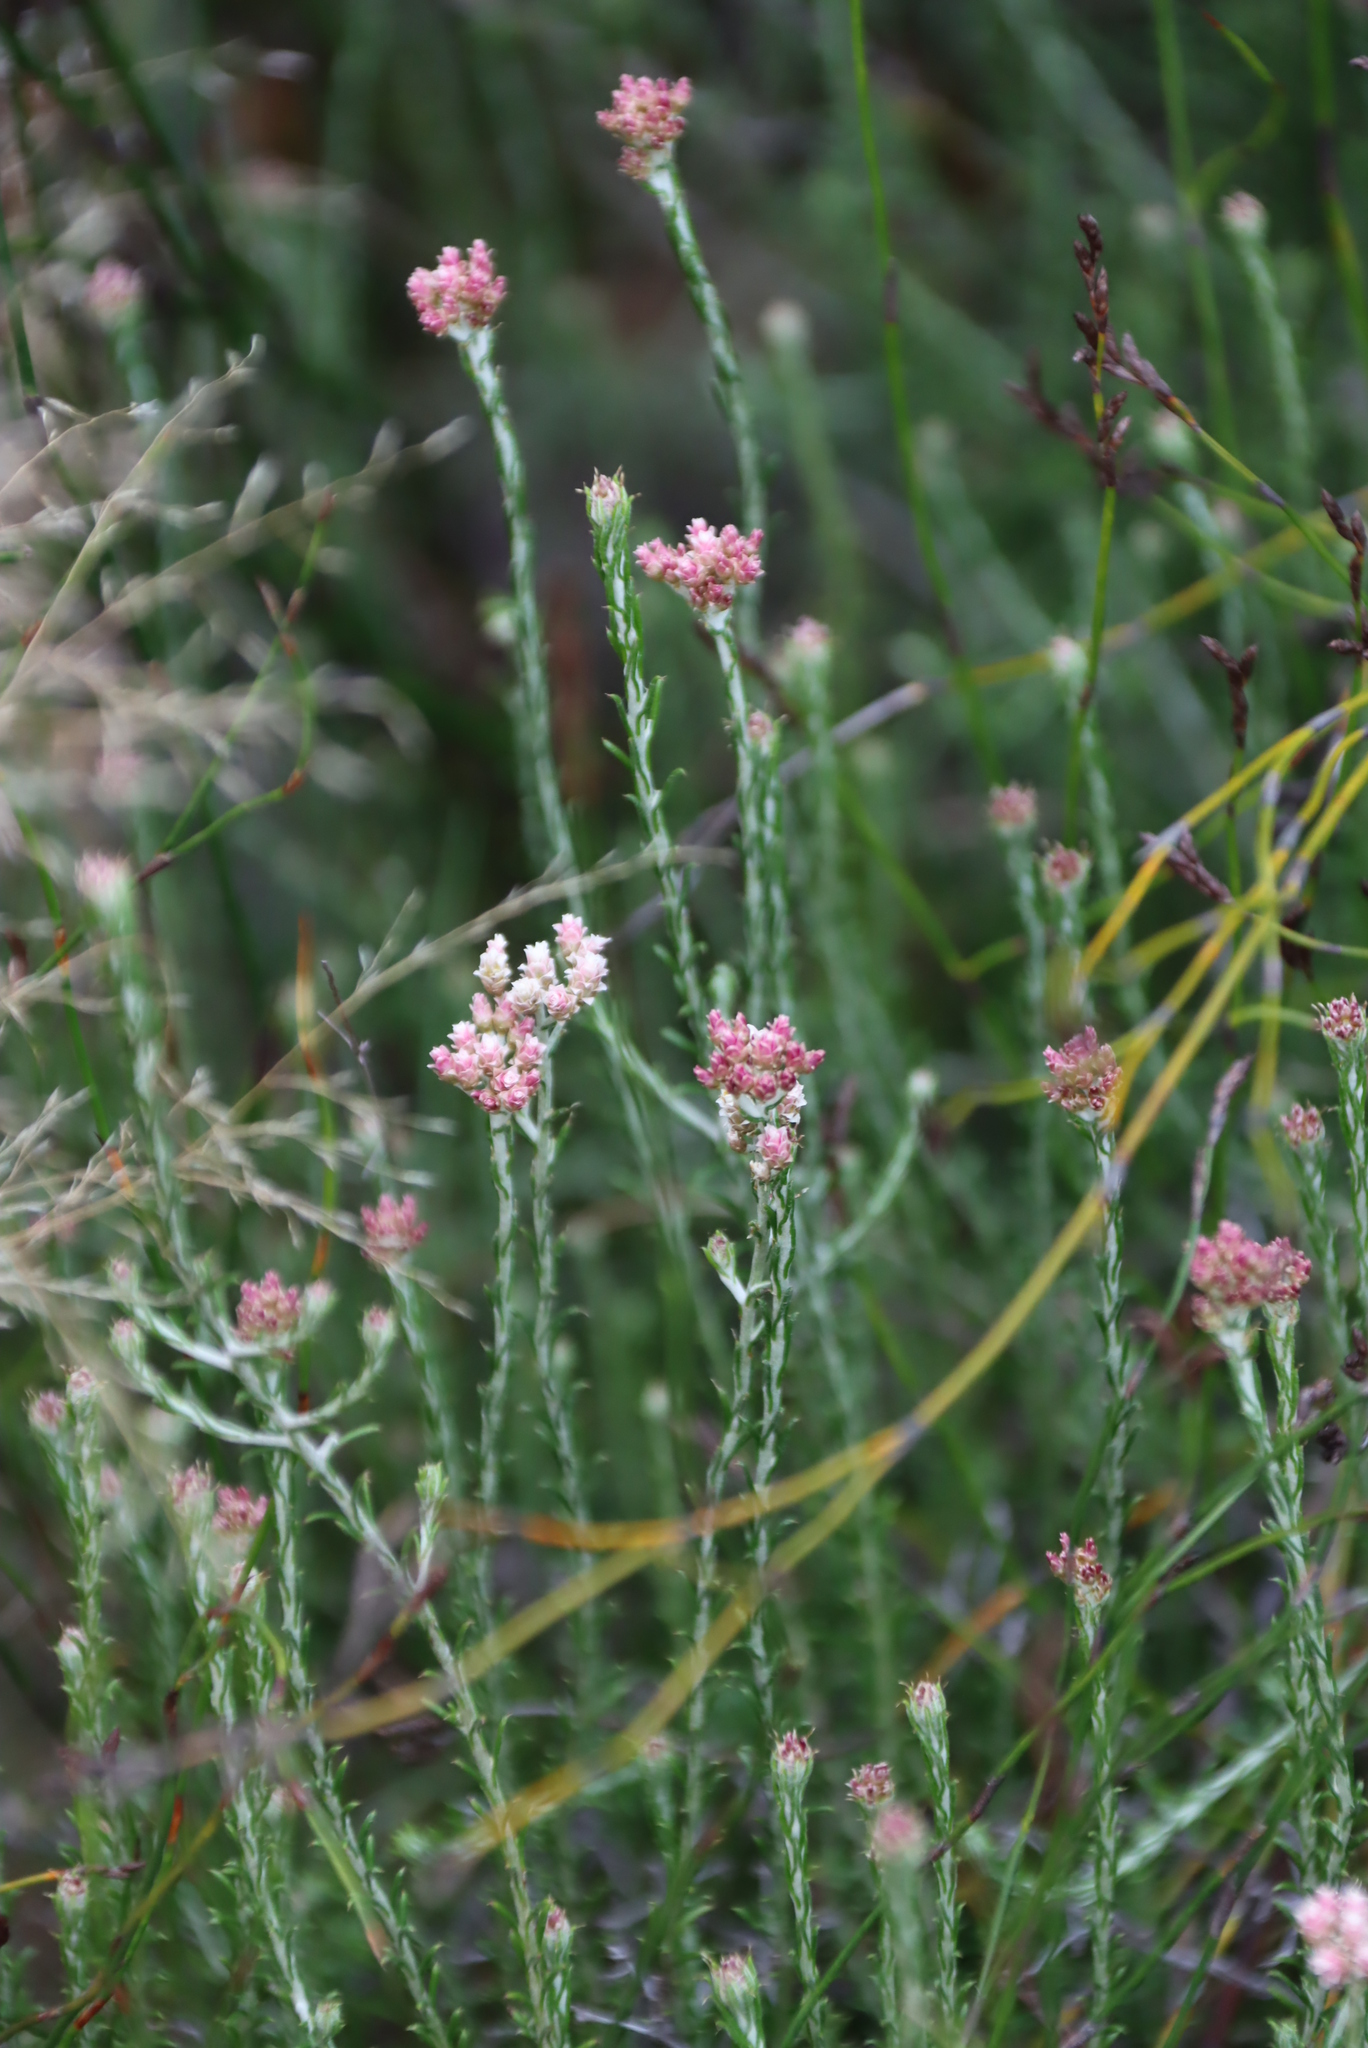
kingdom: Plantae
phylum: Tracheophyta
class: Magnoliopsida
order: Asterales
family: Asteraceae
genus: Metalasia
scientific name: Metalasia pungens
